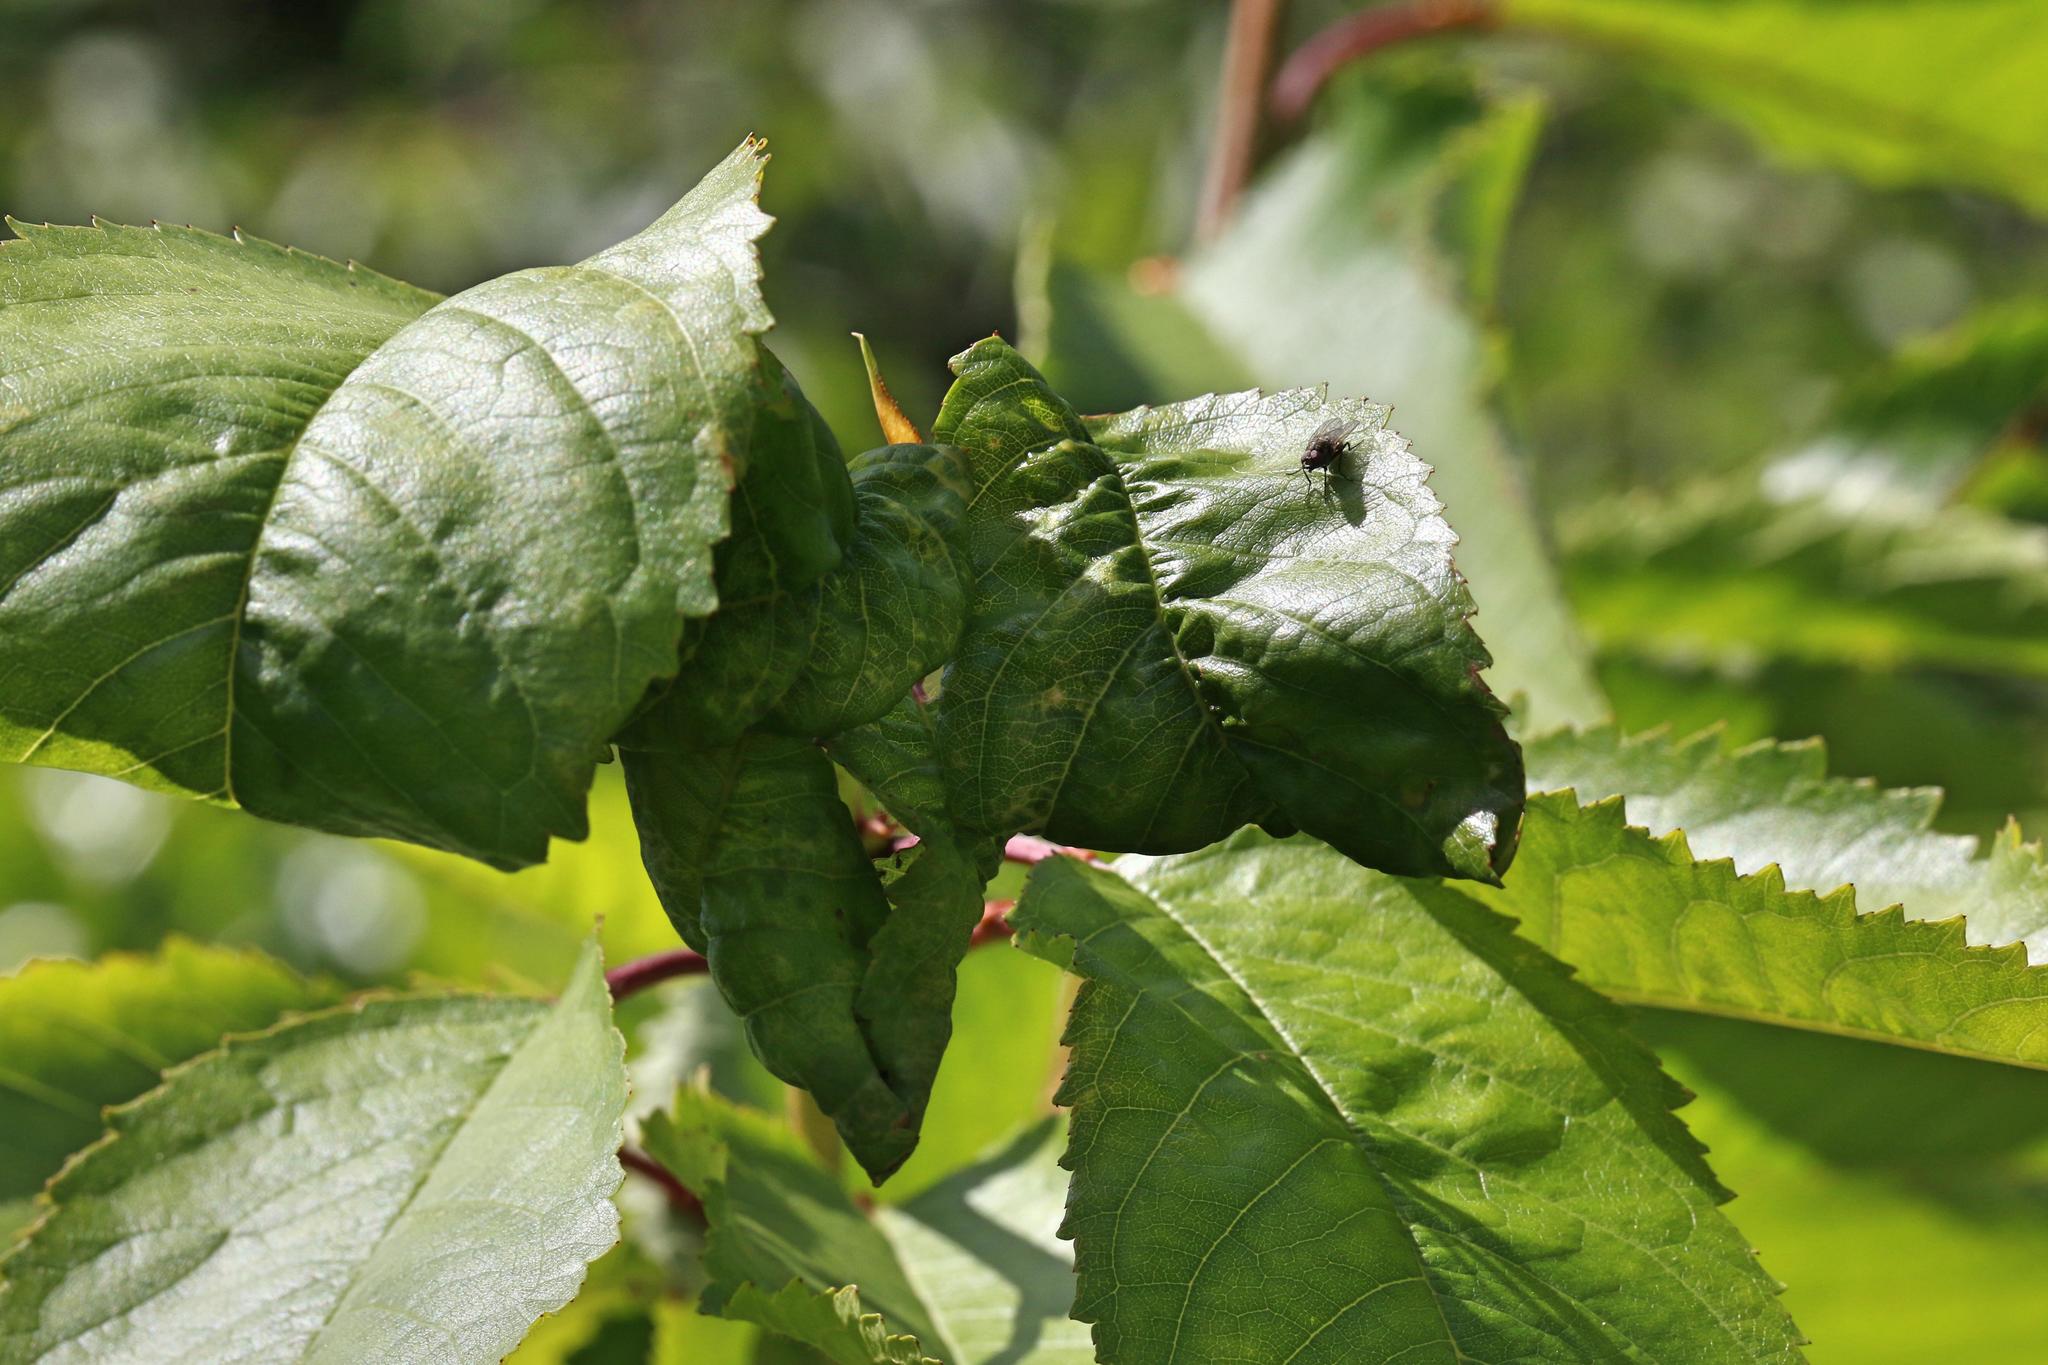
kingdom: Animalia
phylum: Arthropoda
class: Insecta
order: Hemiptera
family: Aphididae
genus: Myzus
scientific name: Myzus cerasi
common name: Black cherry aphid
